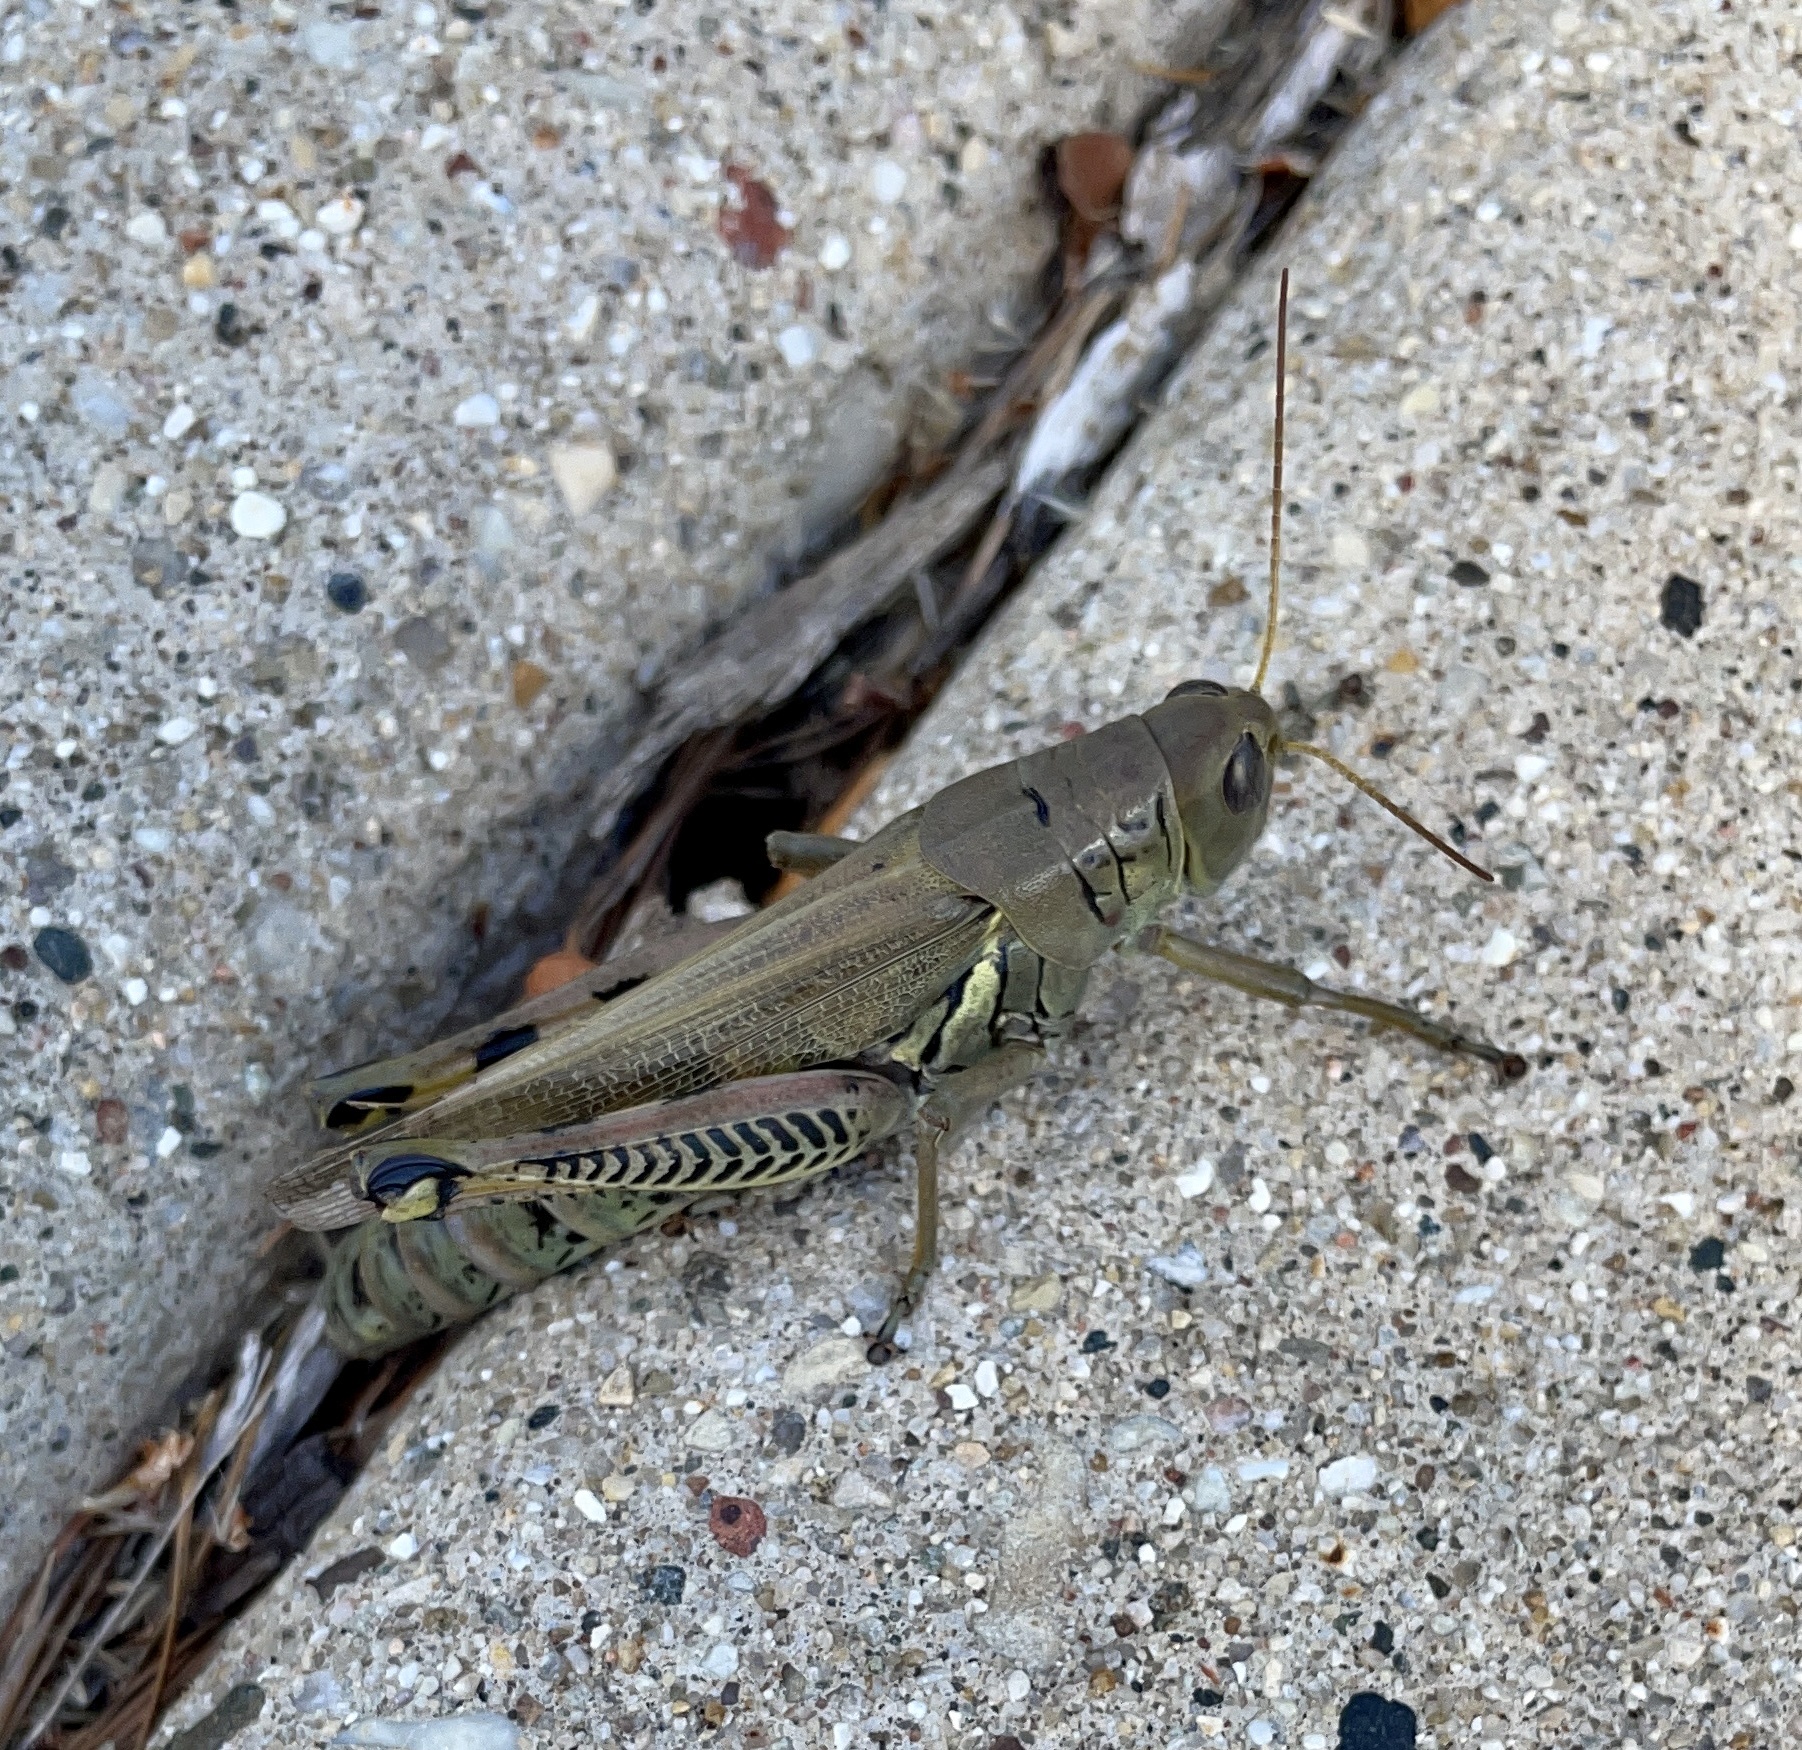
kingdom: Animalia
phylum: Arthropoda
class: Insecta
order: Orthoptera
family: Acrididae
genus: Melanoplus
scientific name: Melanoplus differentialis
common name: Differential grasshopper
